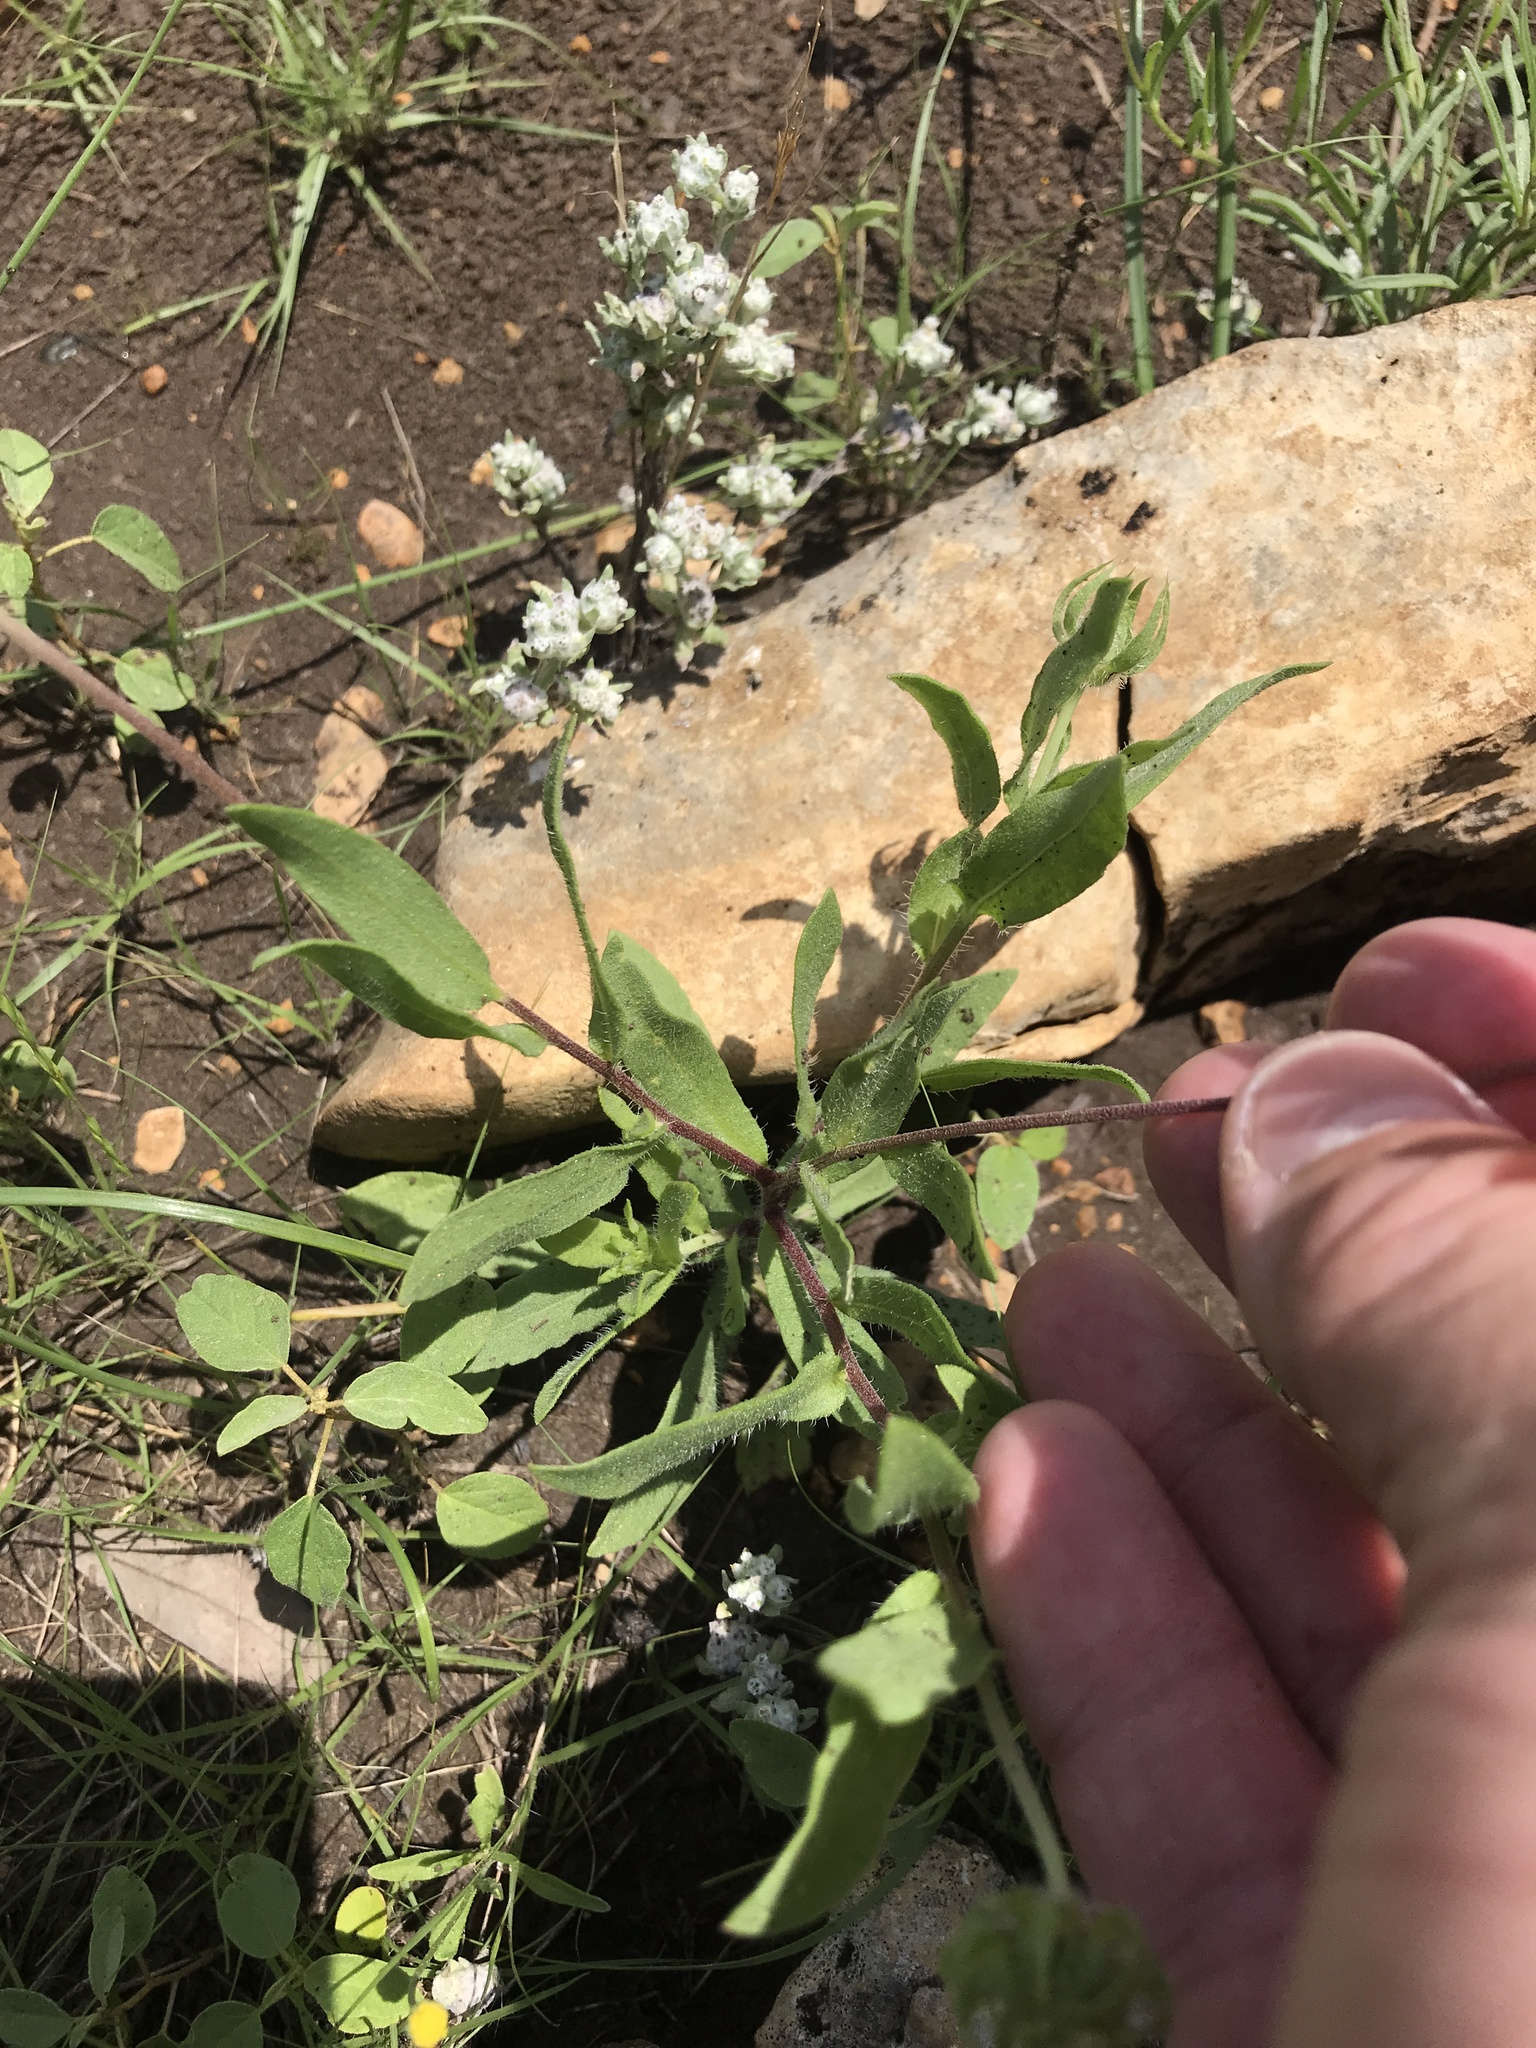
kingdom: Plantae
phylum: Tracheophyta
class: Magnoliopsida
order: Asterales
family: Asteraceae
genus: Gaillardia
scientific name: Gaillardia pulchella
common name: Firewheel
